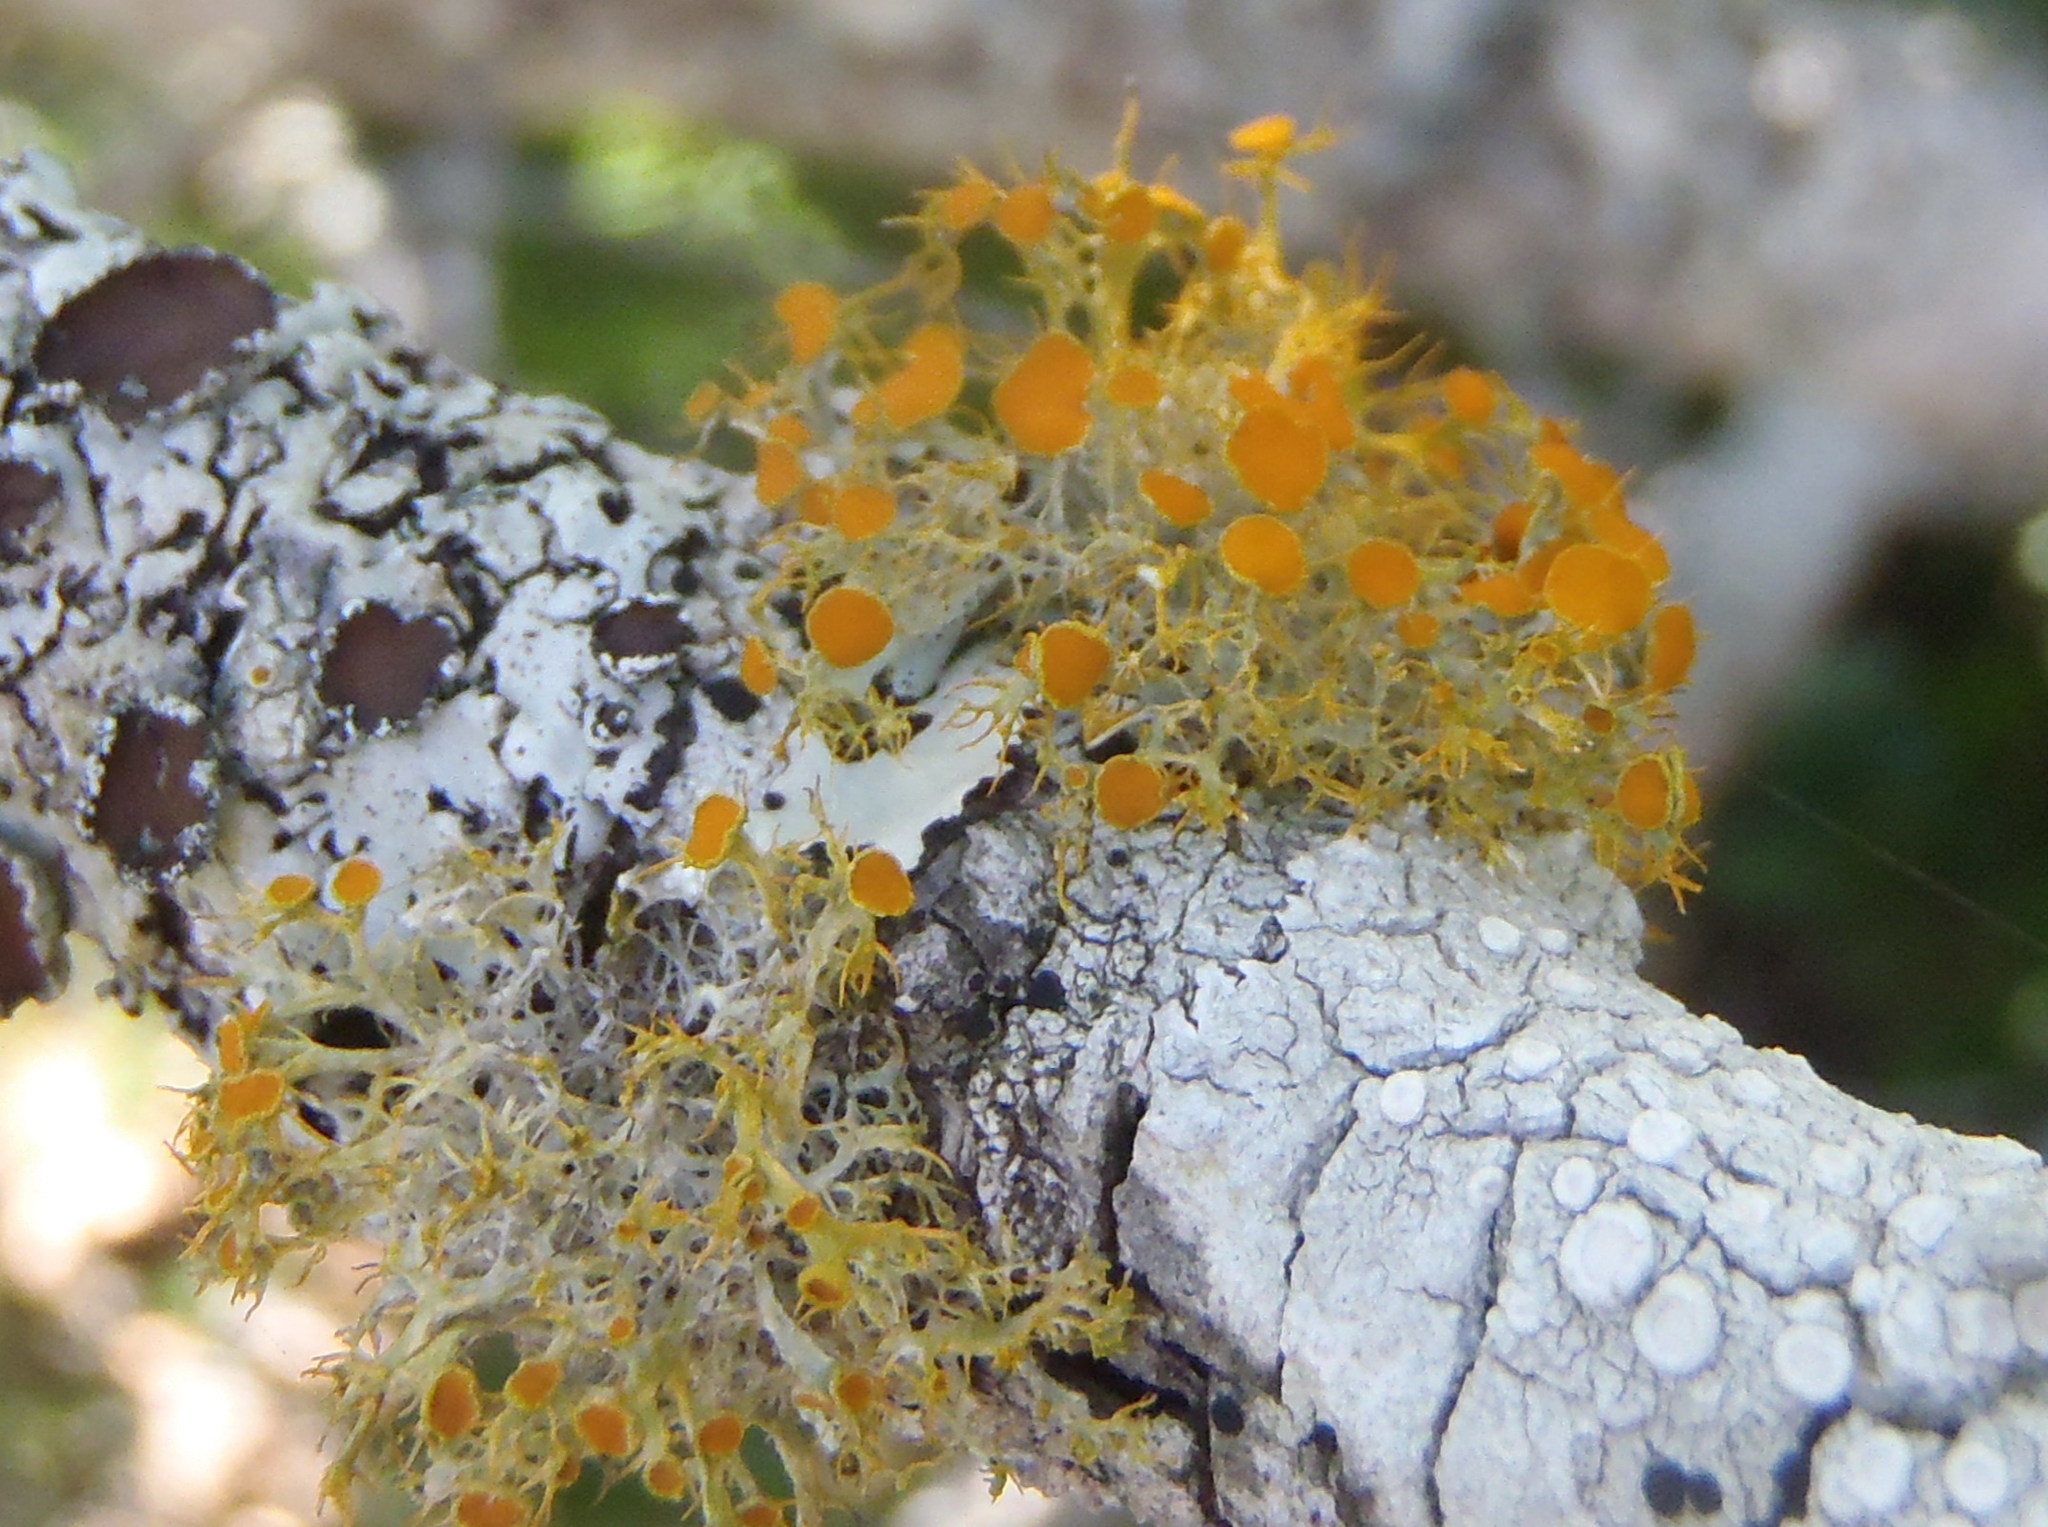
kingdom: Fungi
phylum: Ascomycota
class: Lecanoromycetes
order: Teloschistales
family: Teloschistaceae
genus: Teloschistes
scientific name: Teloschistes exilis
